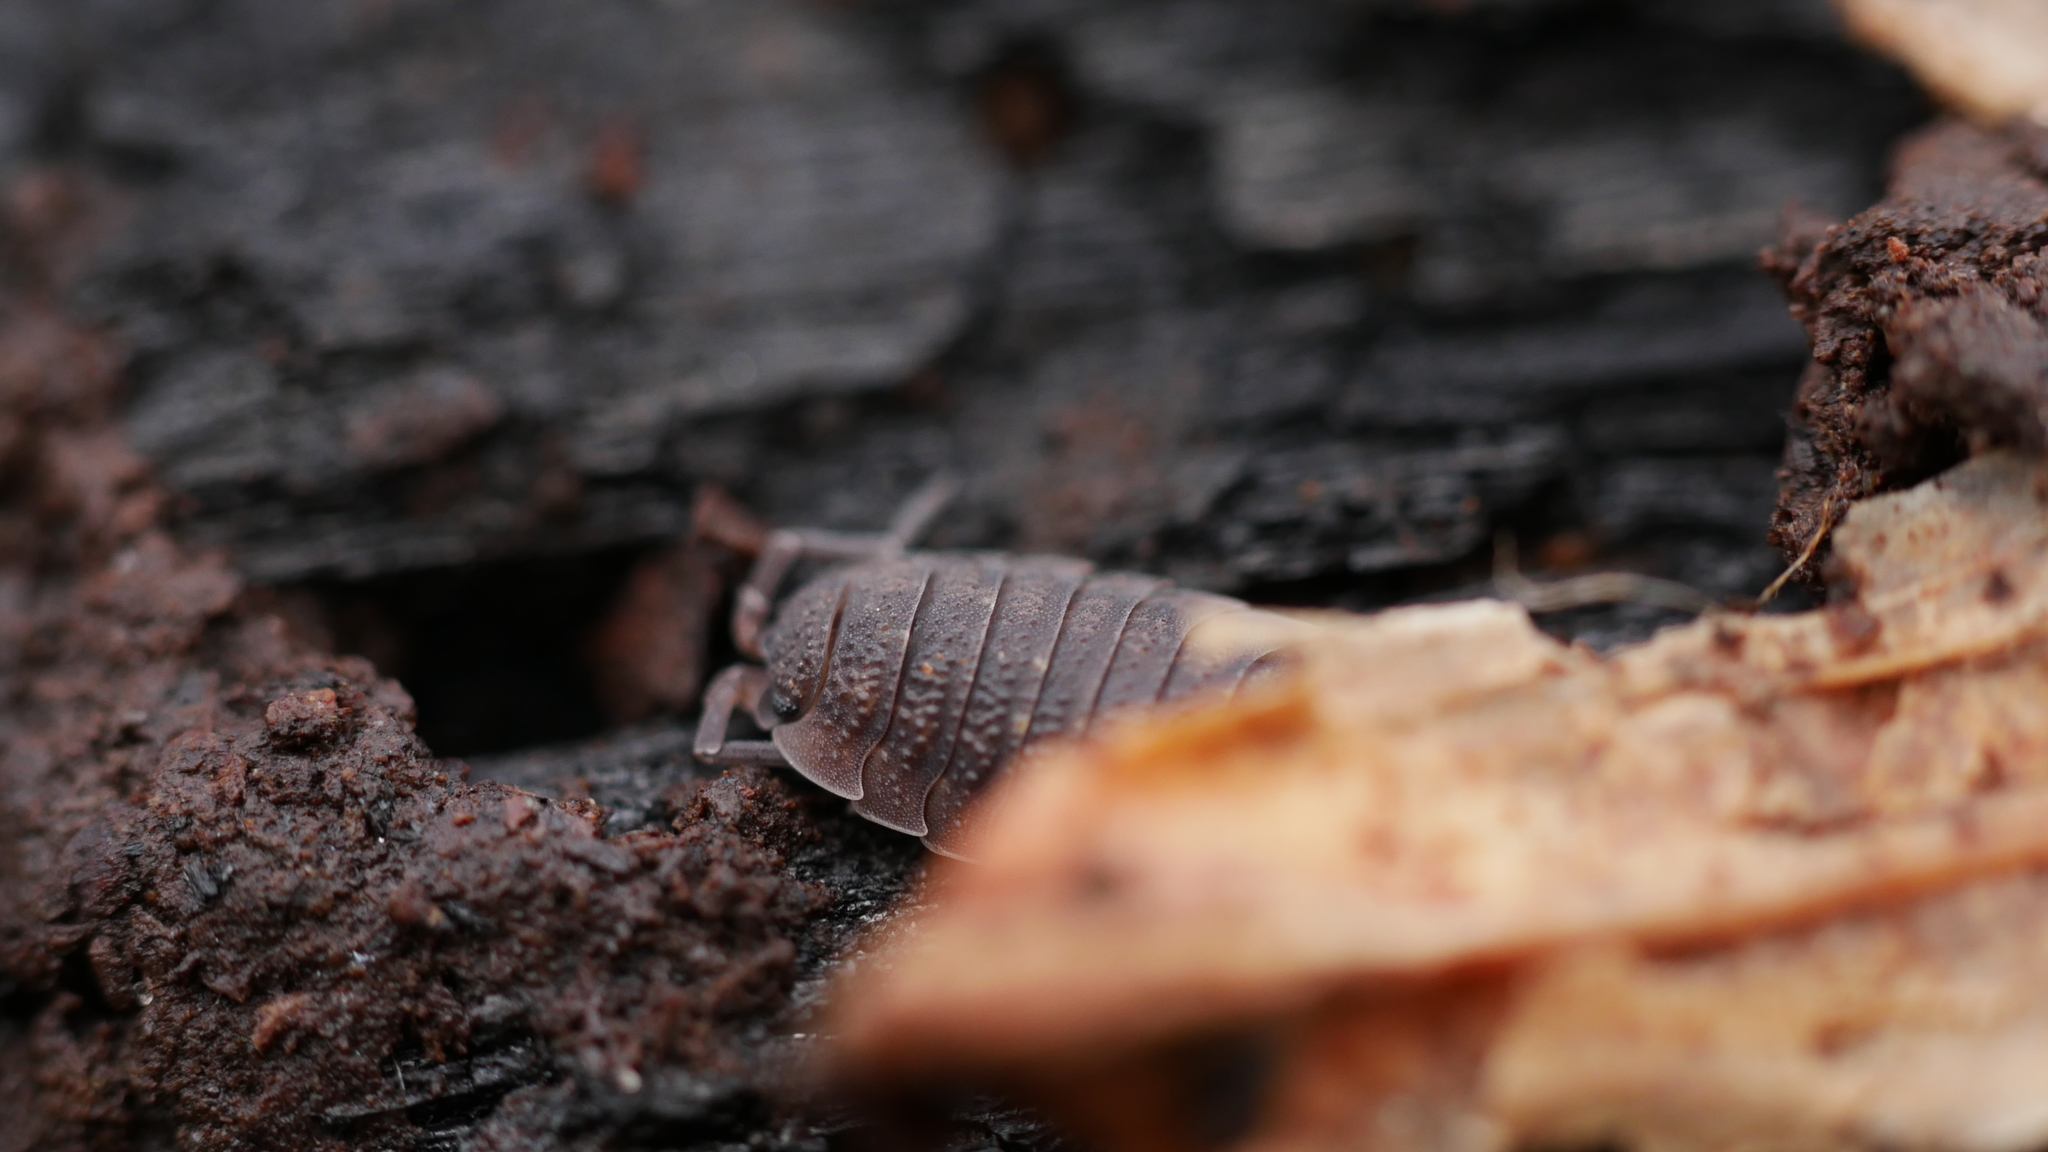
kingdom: Animalia
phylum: Arthropoda
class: Malacostraca
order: Isopoda
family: Porcellionidae
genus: Porcellio
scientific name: Porcellio scaber
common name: Common rough woodlouse
